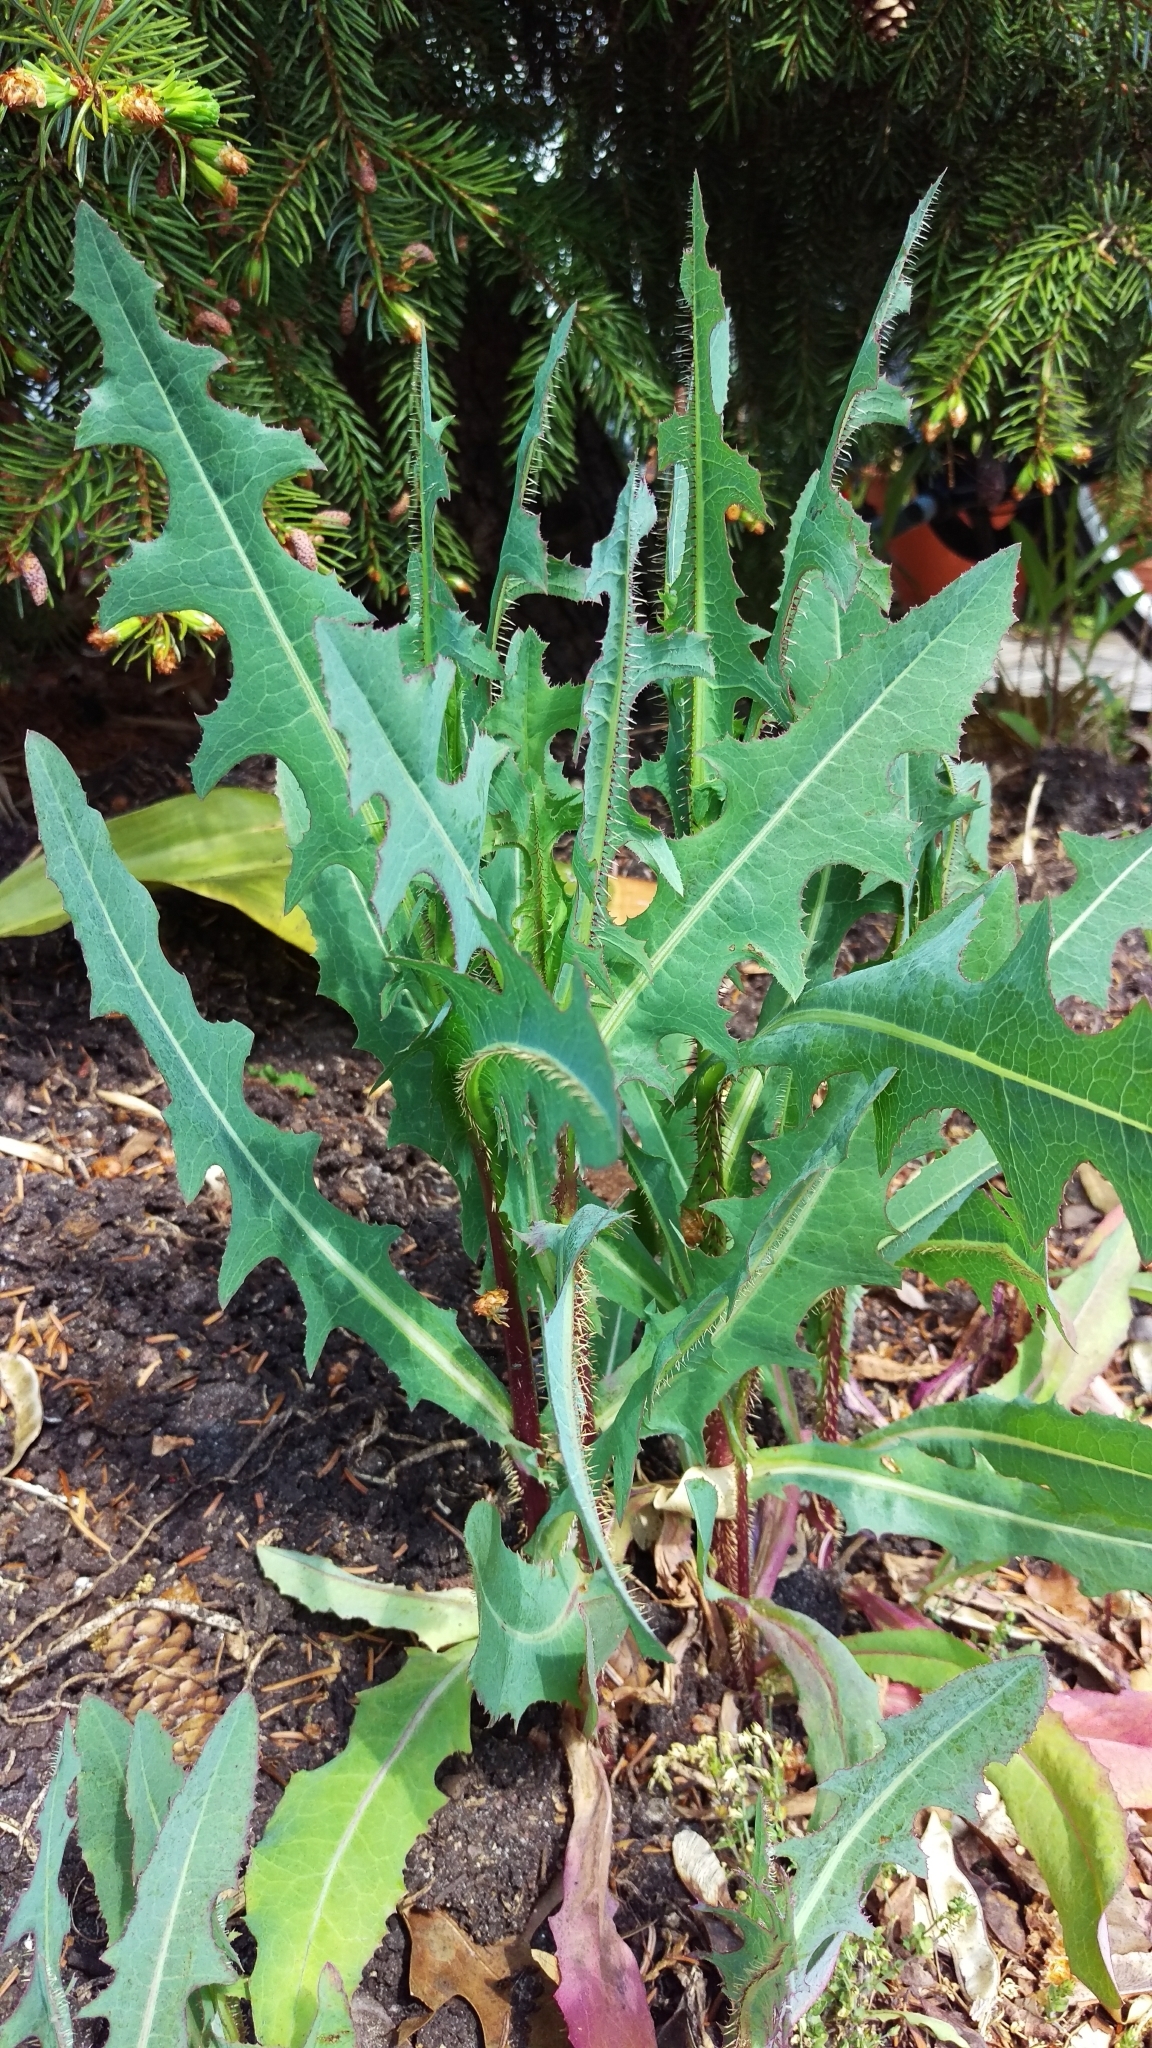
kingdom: Plantae
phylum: Tracheophyta
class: Magnoliopsida
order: Asterales
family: Asteraceae
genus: Lactuca
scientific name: Lactuca serriola
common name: Prickly lettuce
